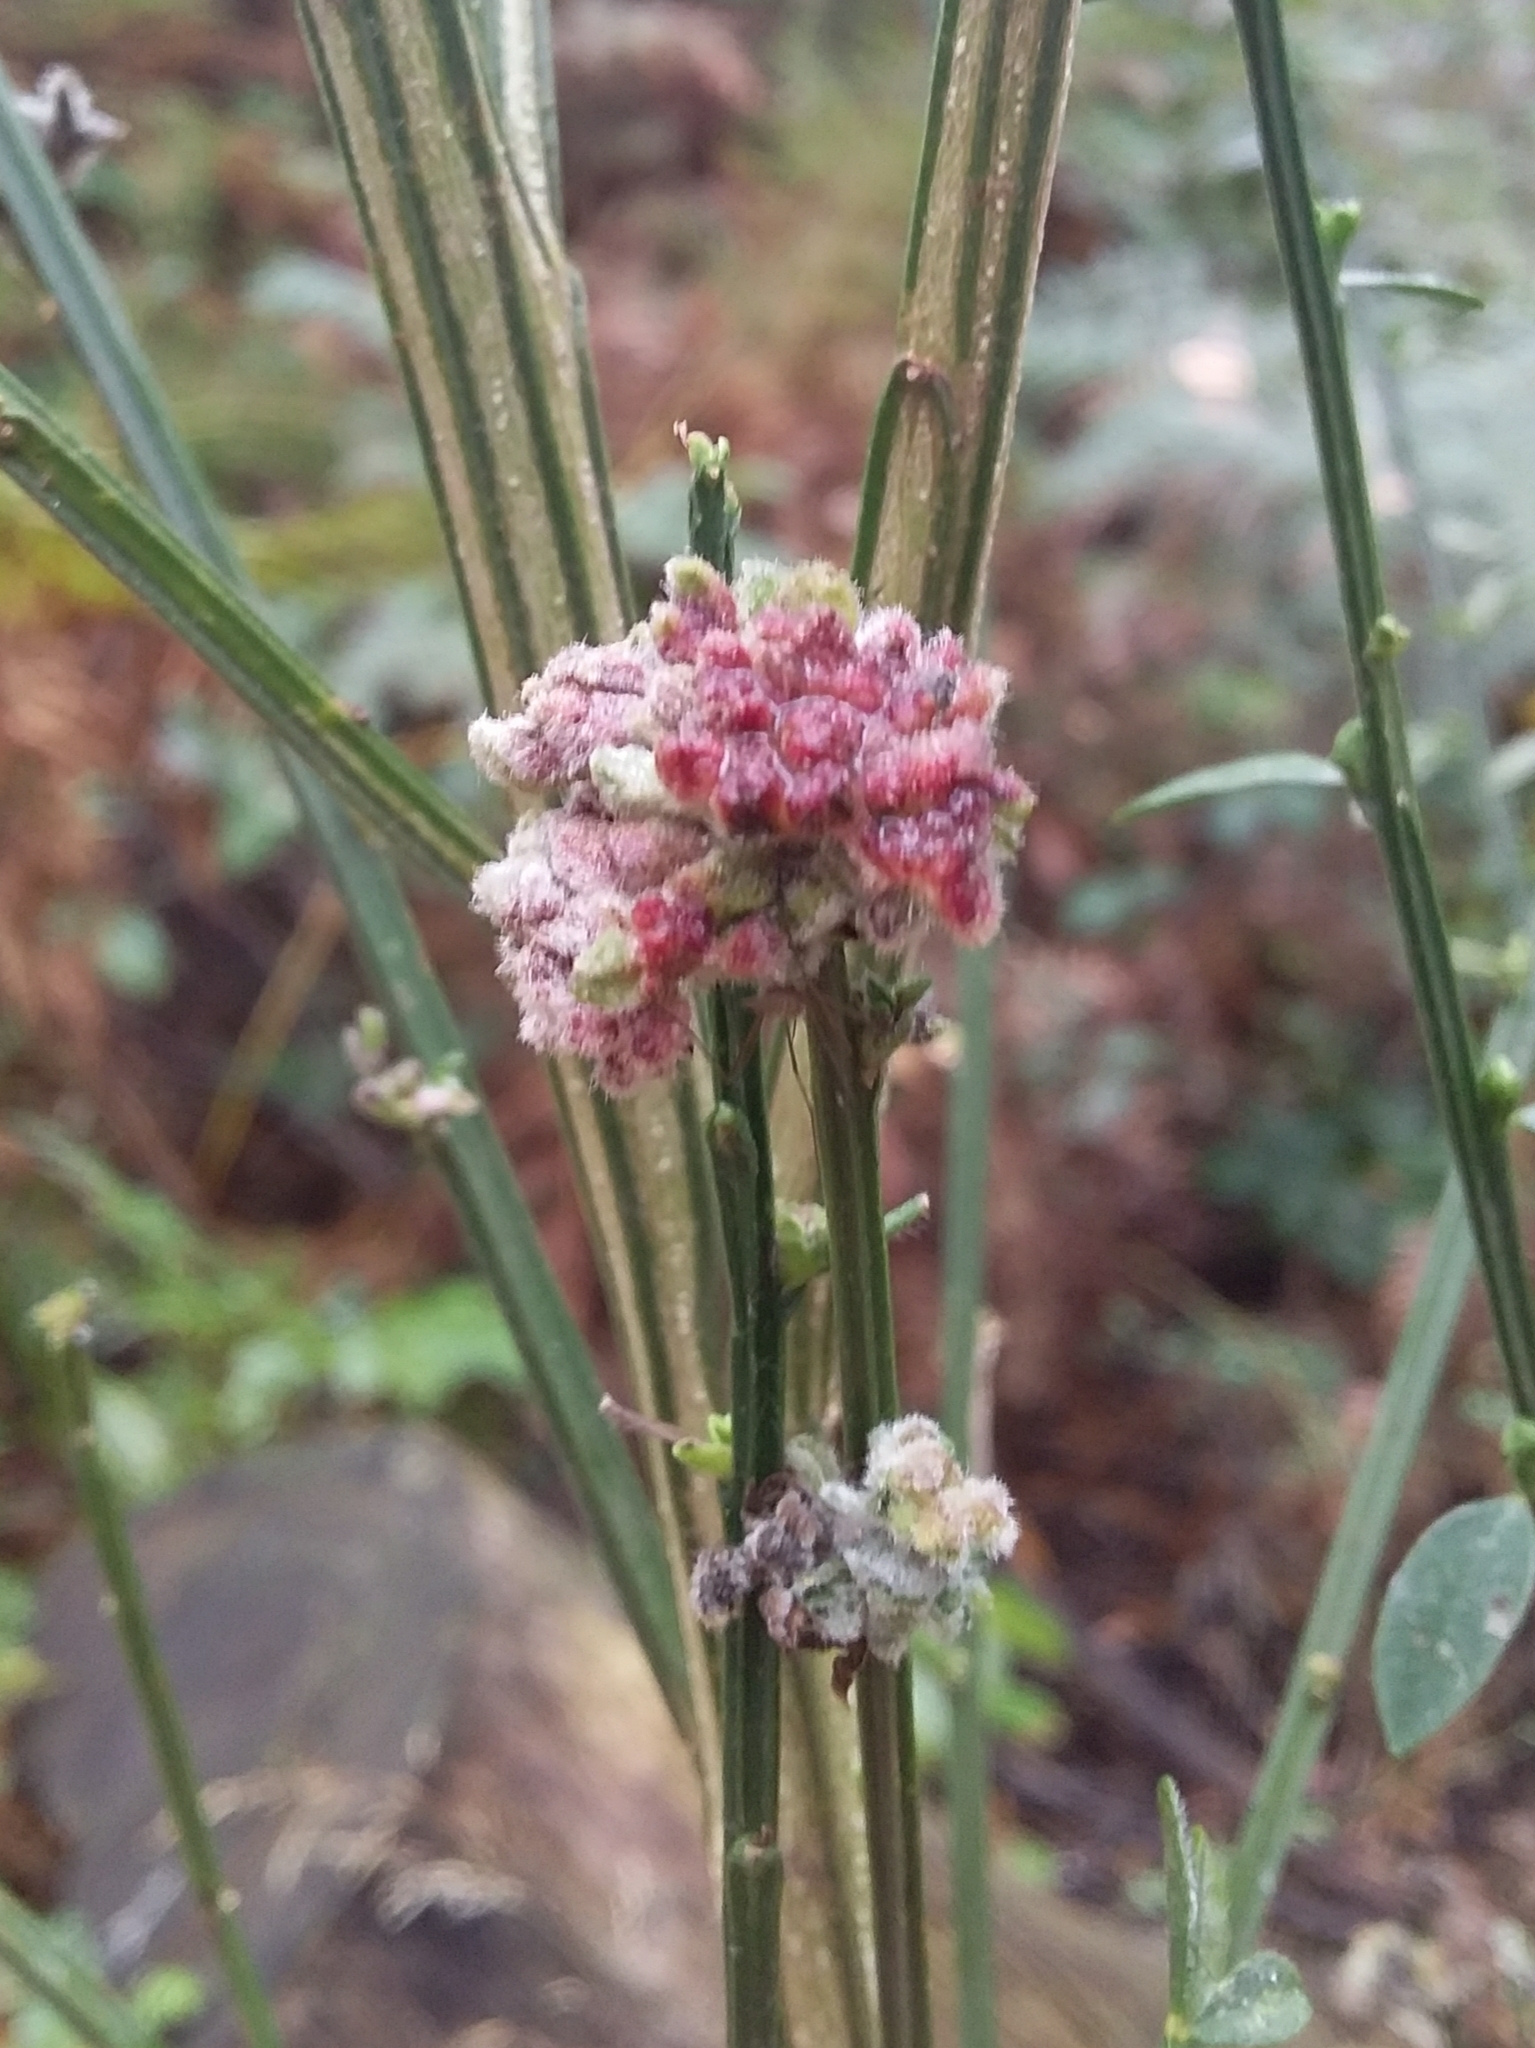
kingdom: Animalia
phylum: Arthropoda
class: Arachnida
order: Trombidiformes
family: Eriophyidae
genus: Aceria
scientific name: Aceria genistae
